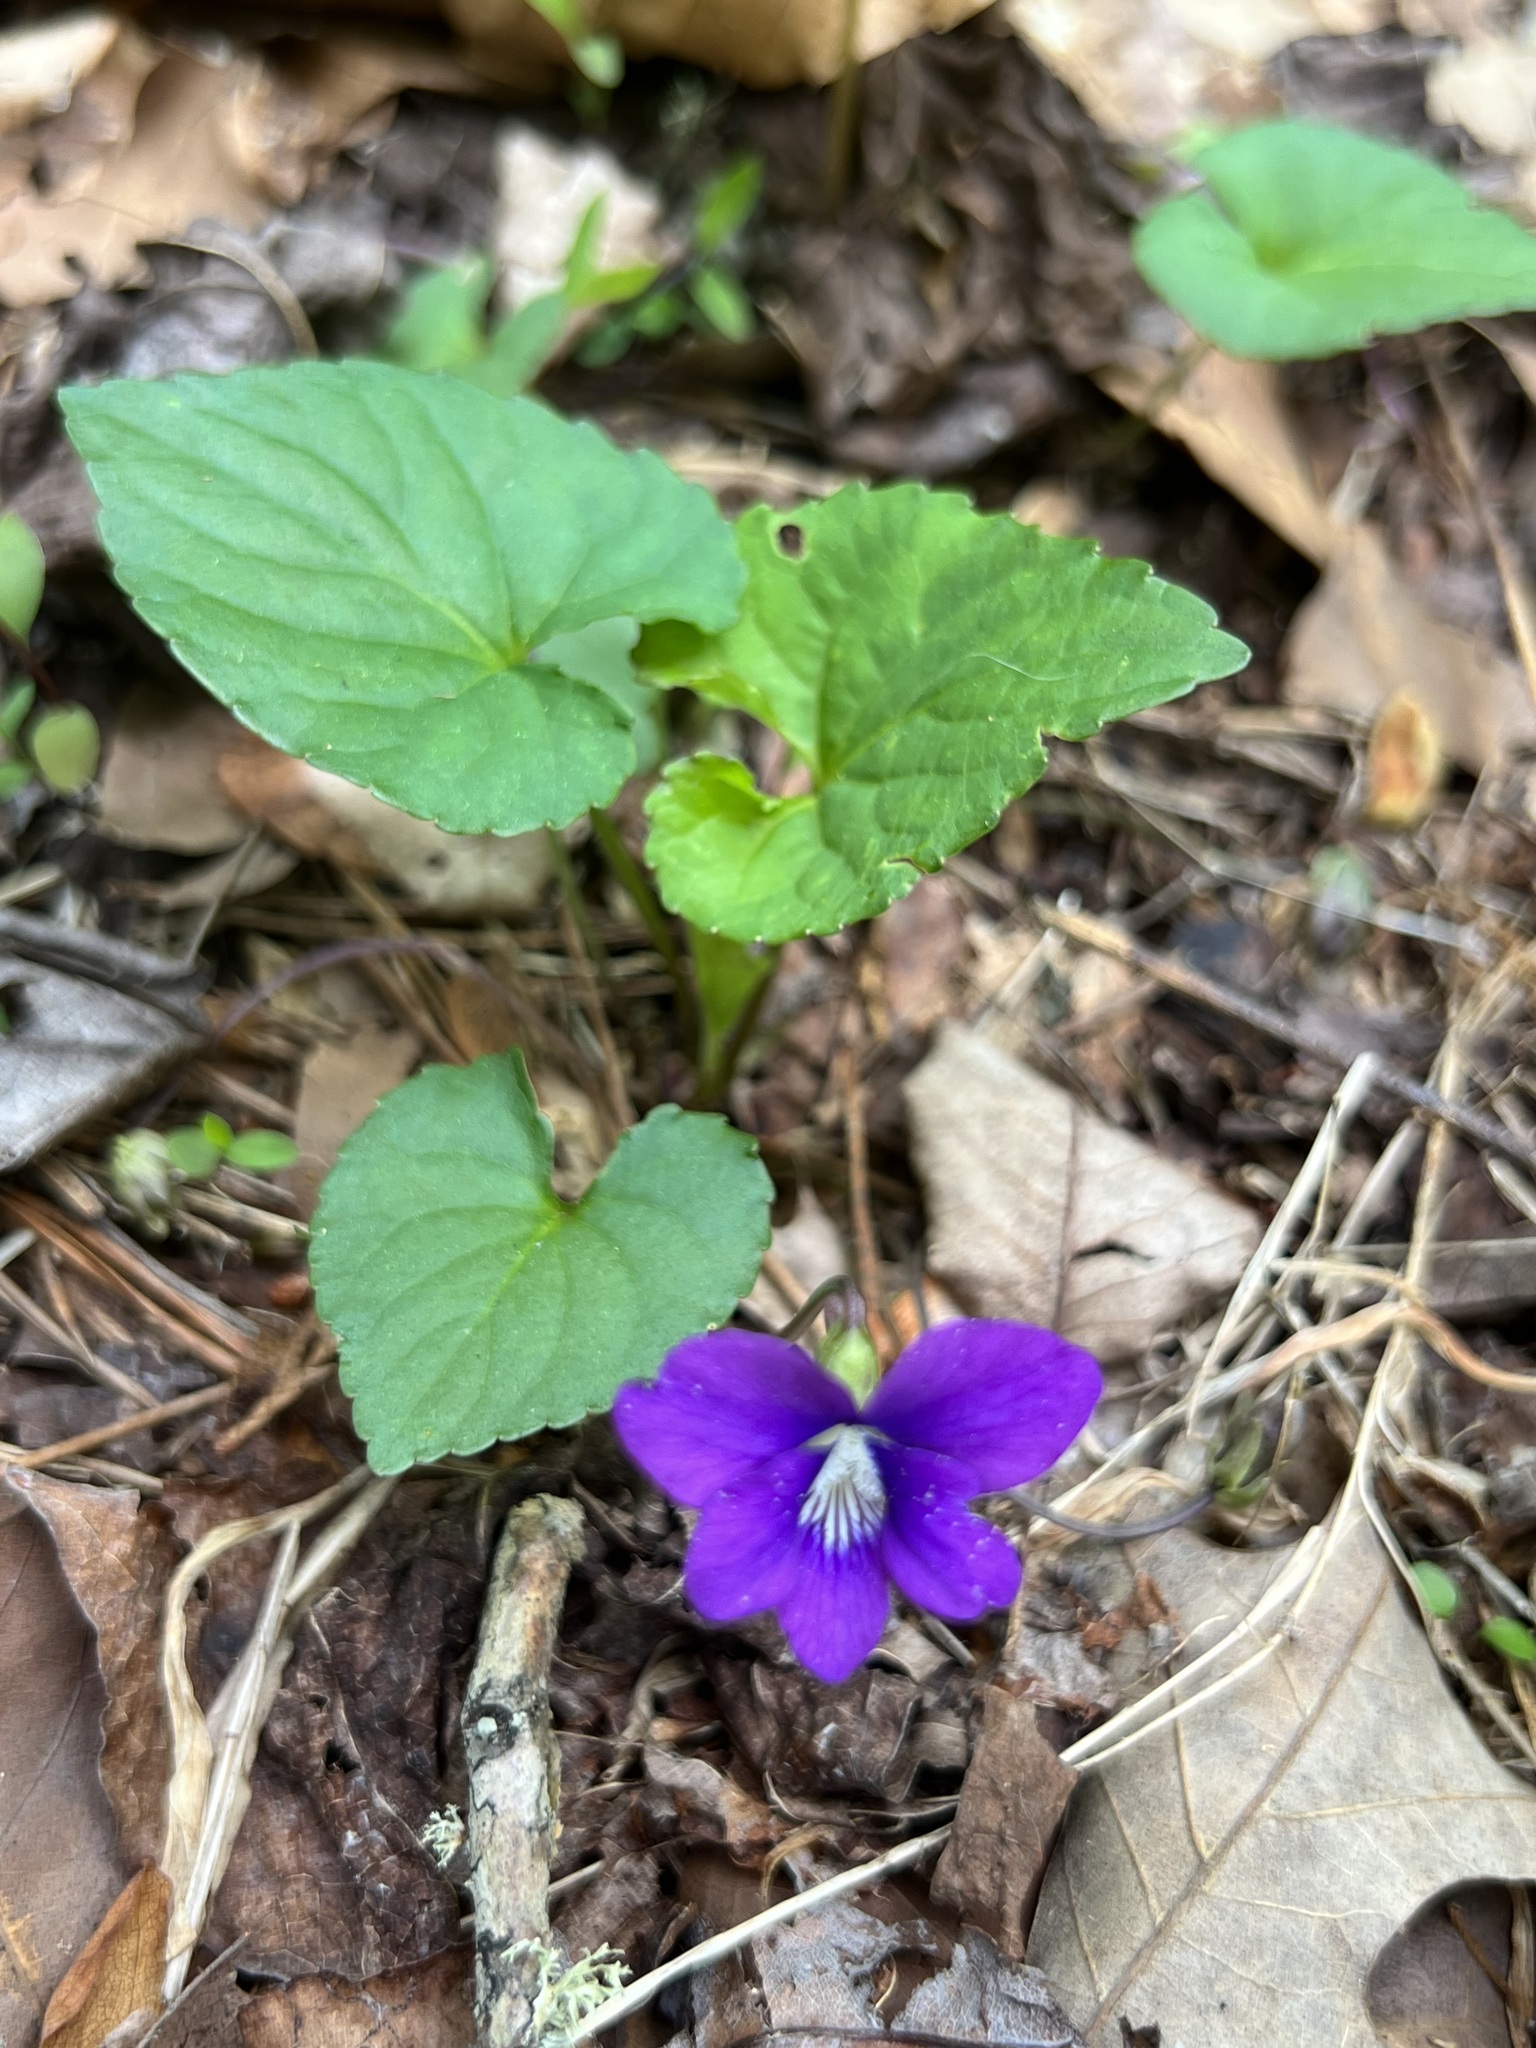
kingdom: Plantae
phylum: Tracheophyta
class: Magnoliopsida
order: Malpighiales
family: Violaceae
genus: Viola
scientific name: Viola sororia
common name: Dooryard violet
